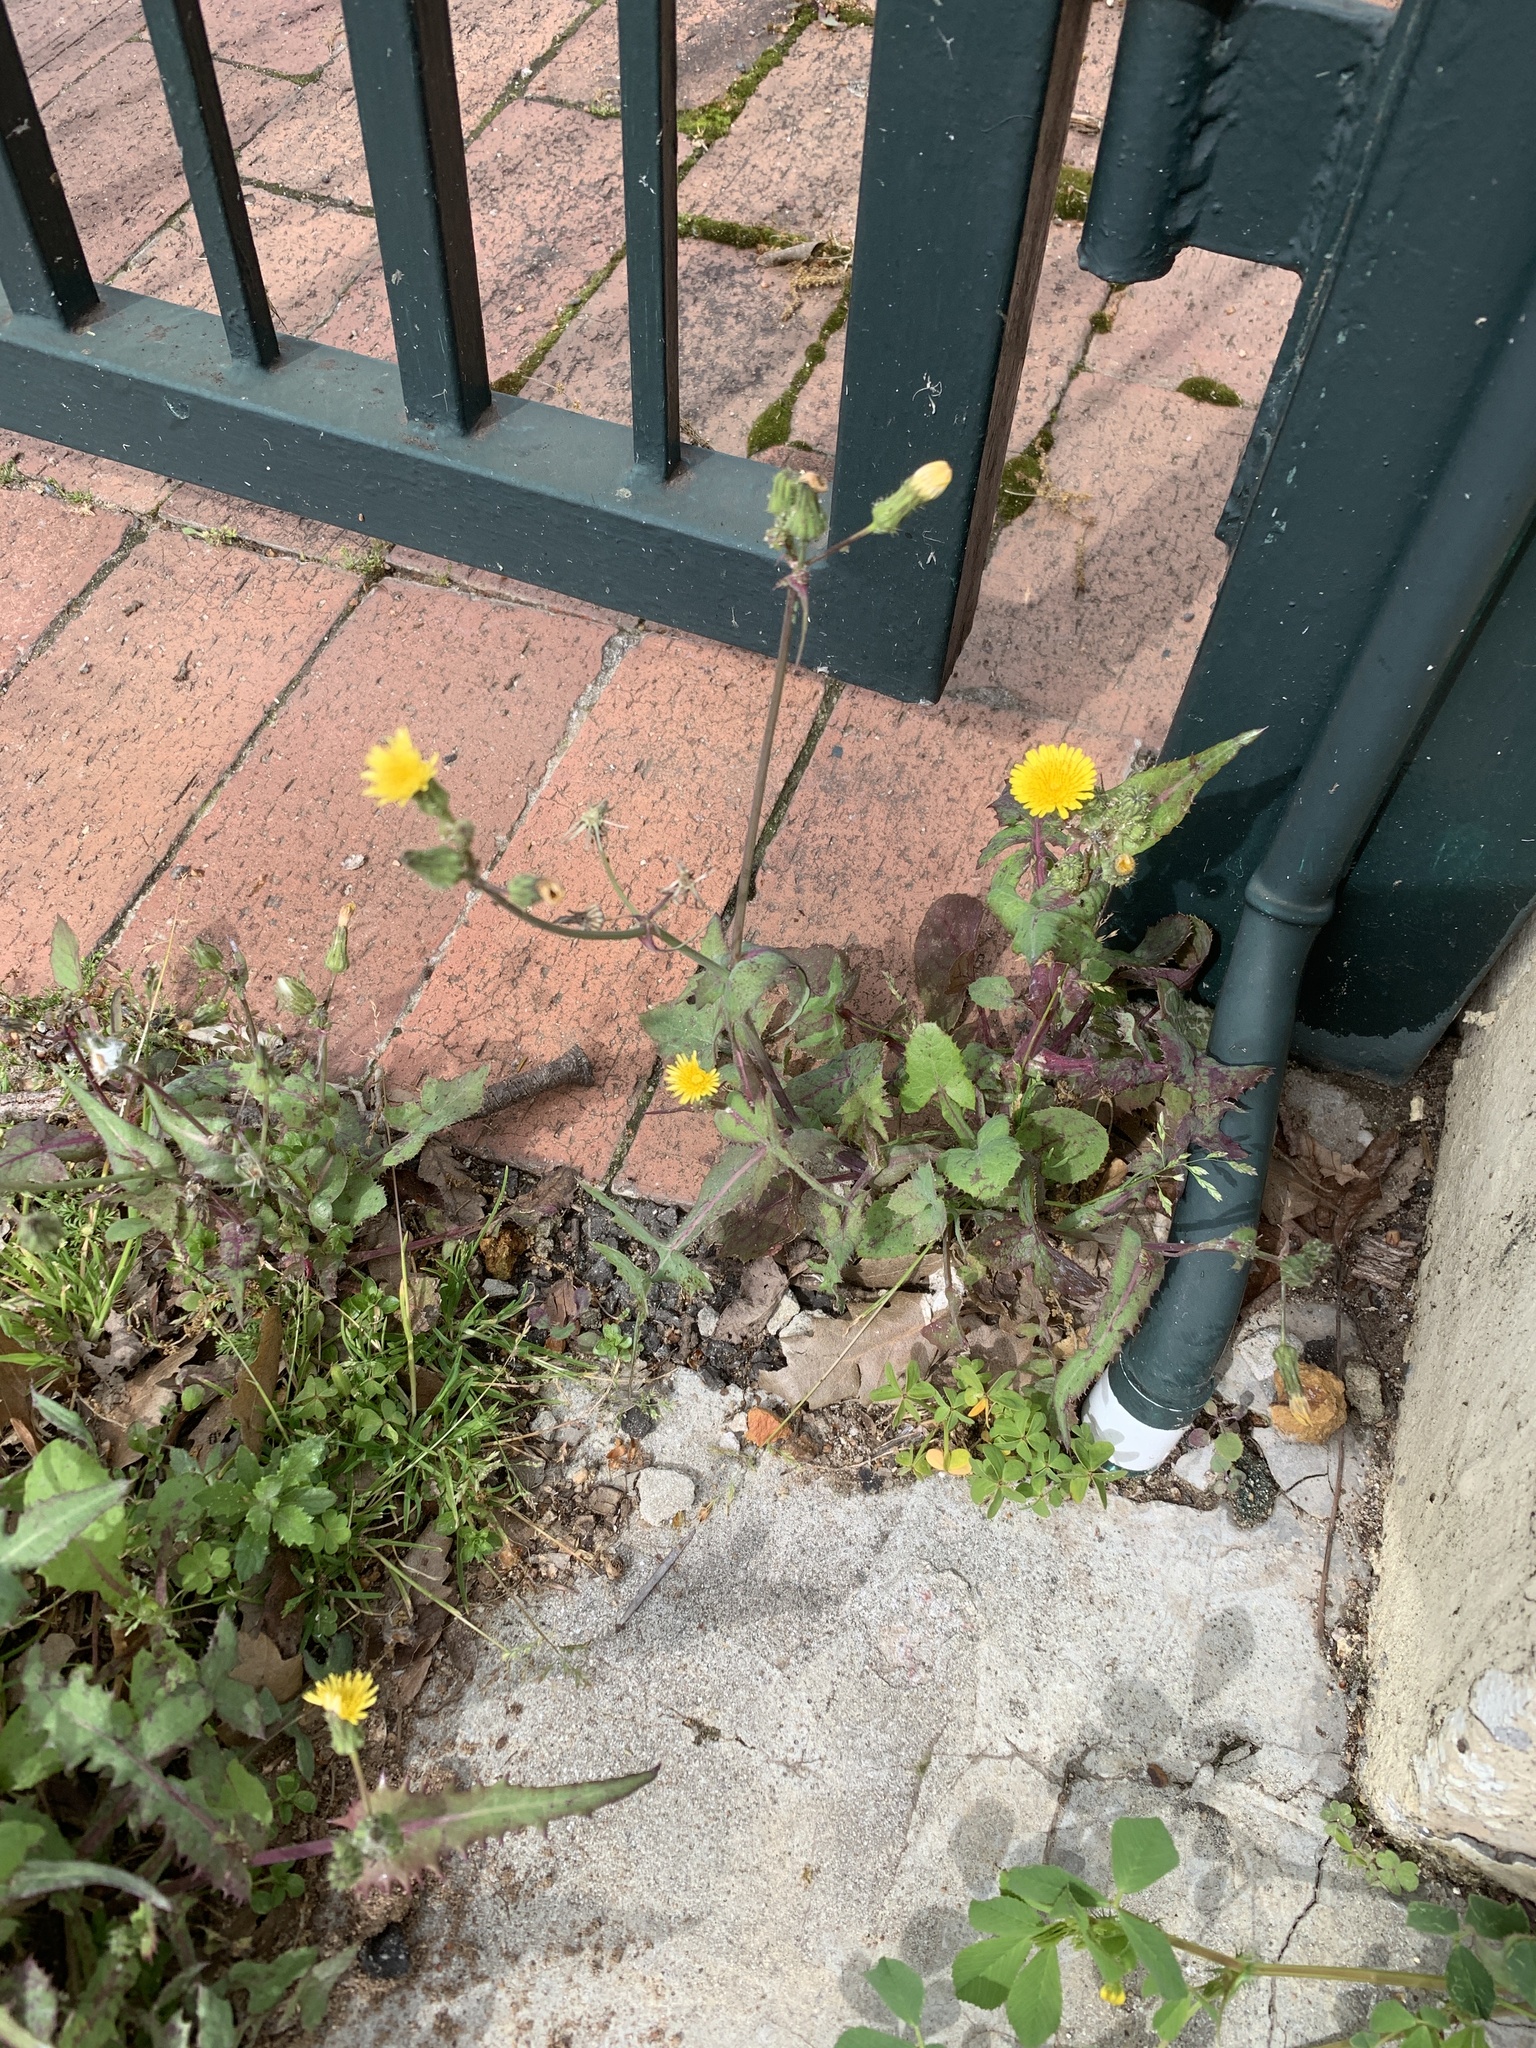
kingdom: Plantae
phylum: Tracheophyta
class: Magnoliopsida
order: Asterales
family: Asteraceae
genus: Sonchus
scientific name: Sonchus oleraceus
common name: Common sowthistle
